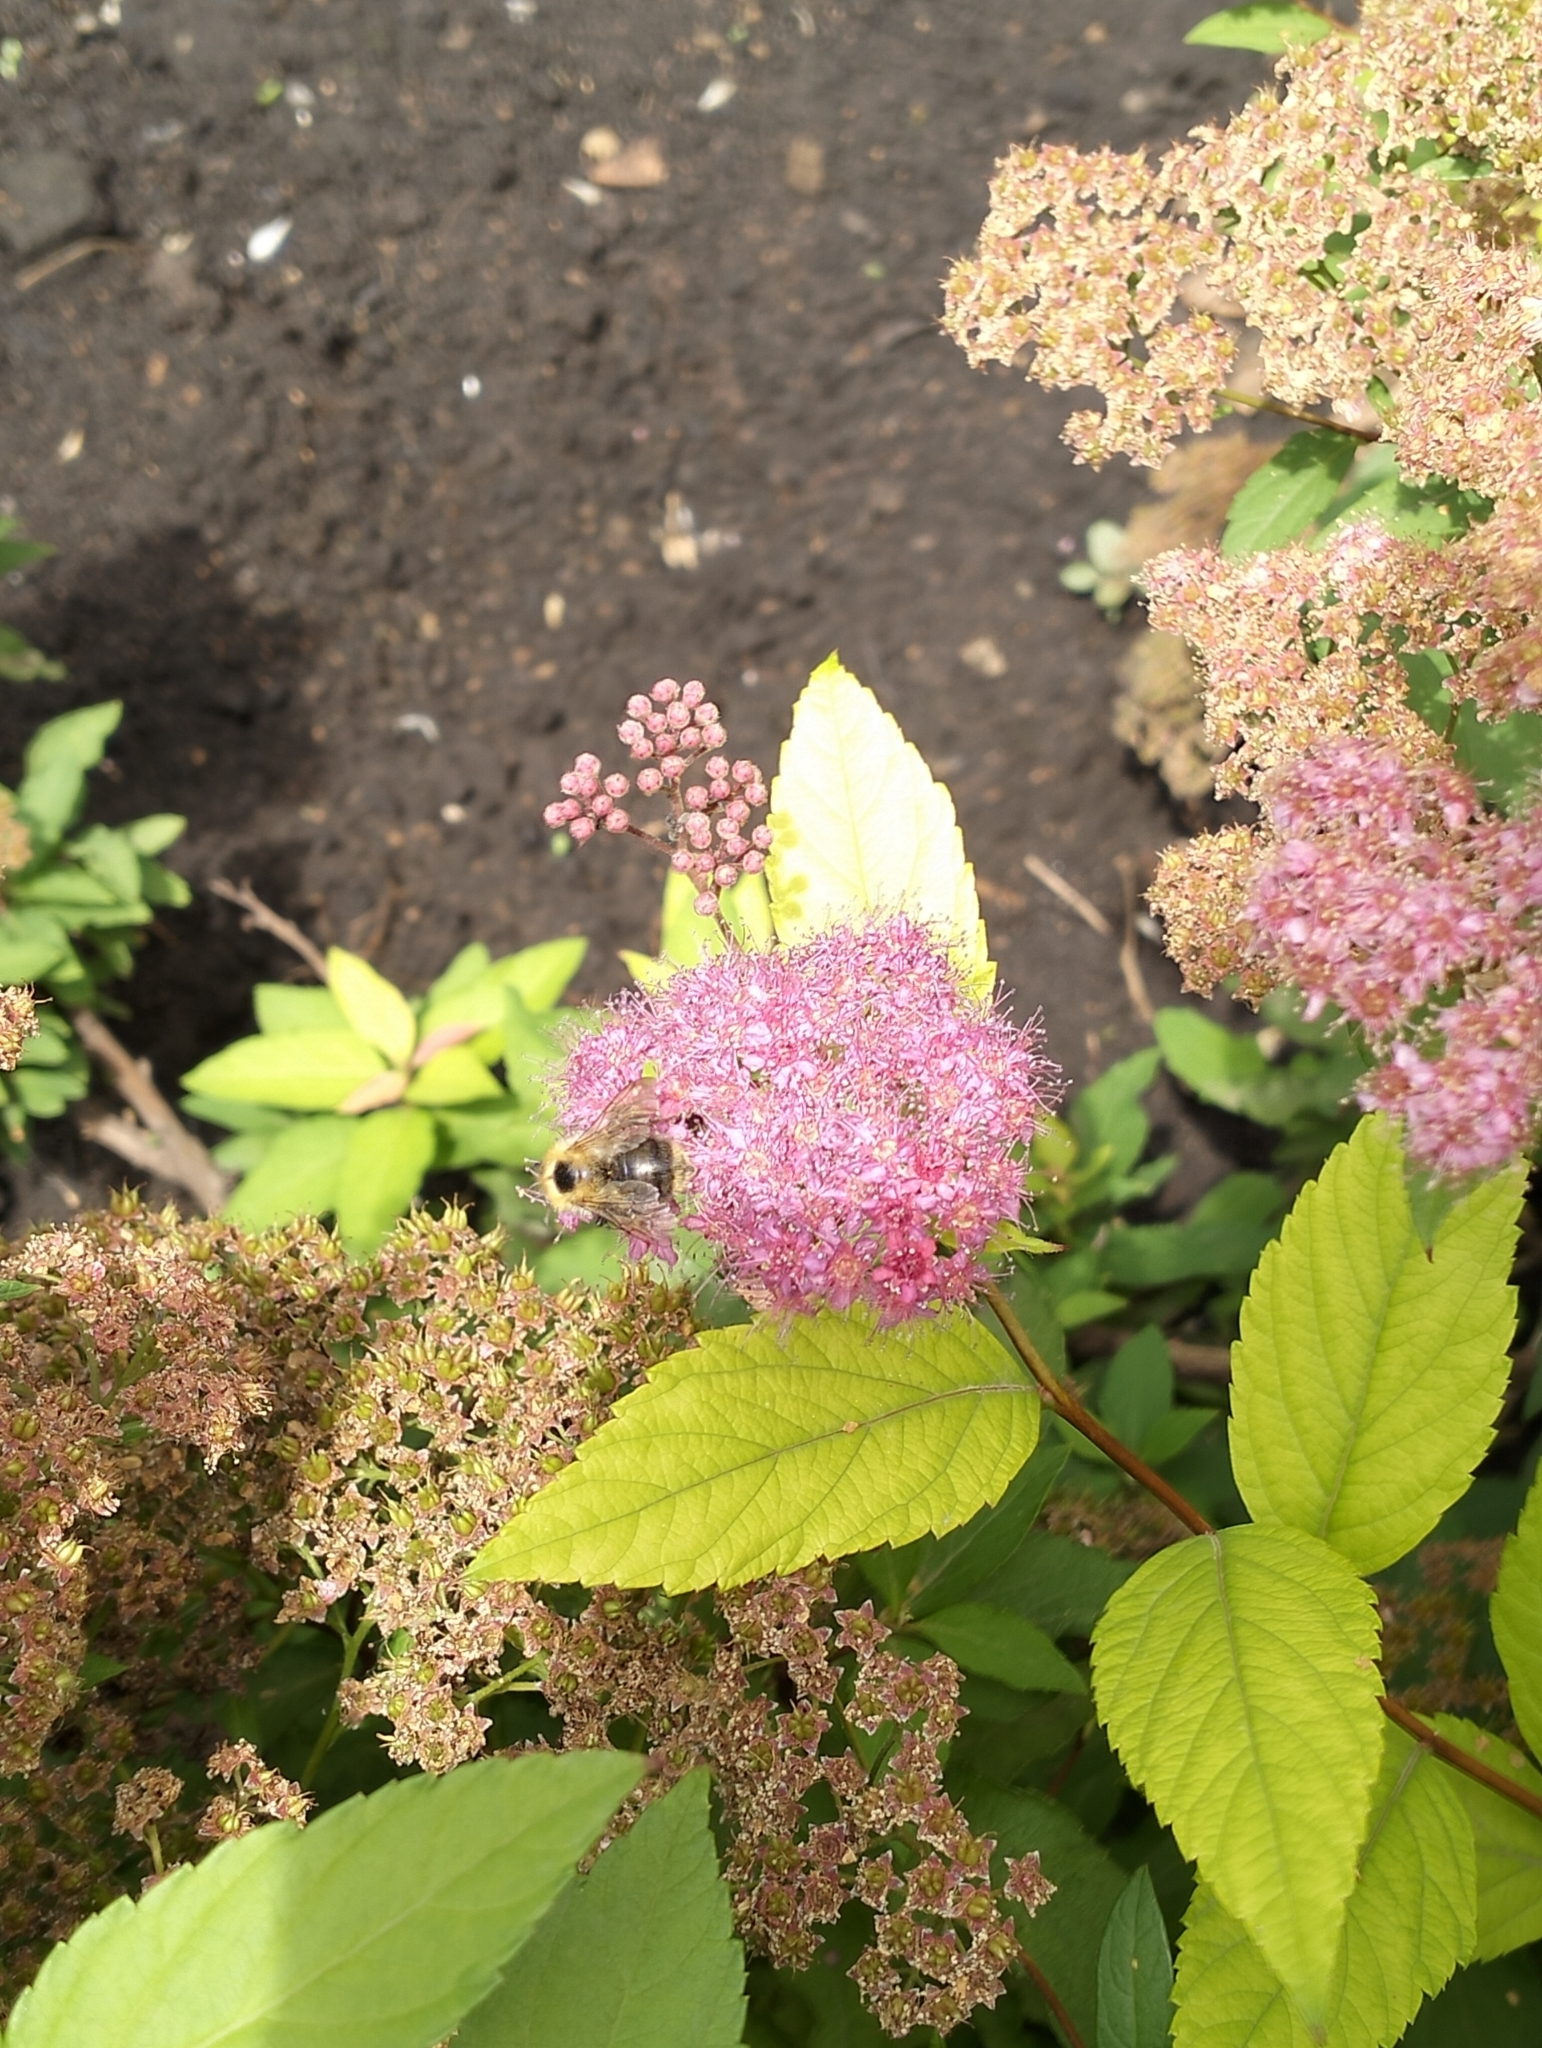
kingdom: Animalia
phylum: Arthropoda
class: Insecta
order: Hymenoptera
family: Apidae
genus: Bombus
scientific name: Bombus pascuorum
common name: Common carder bee
